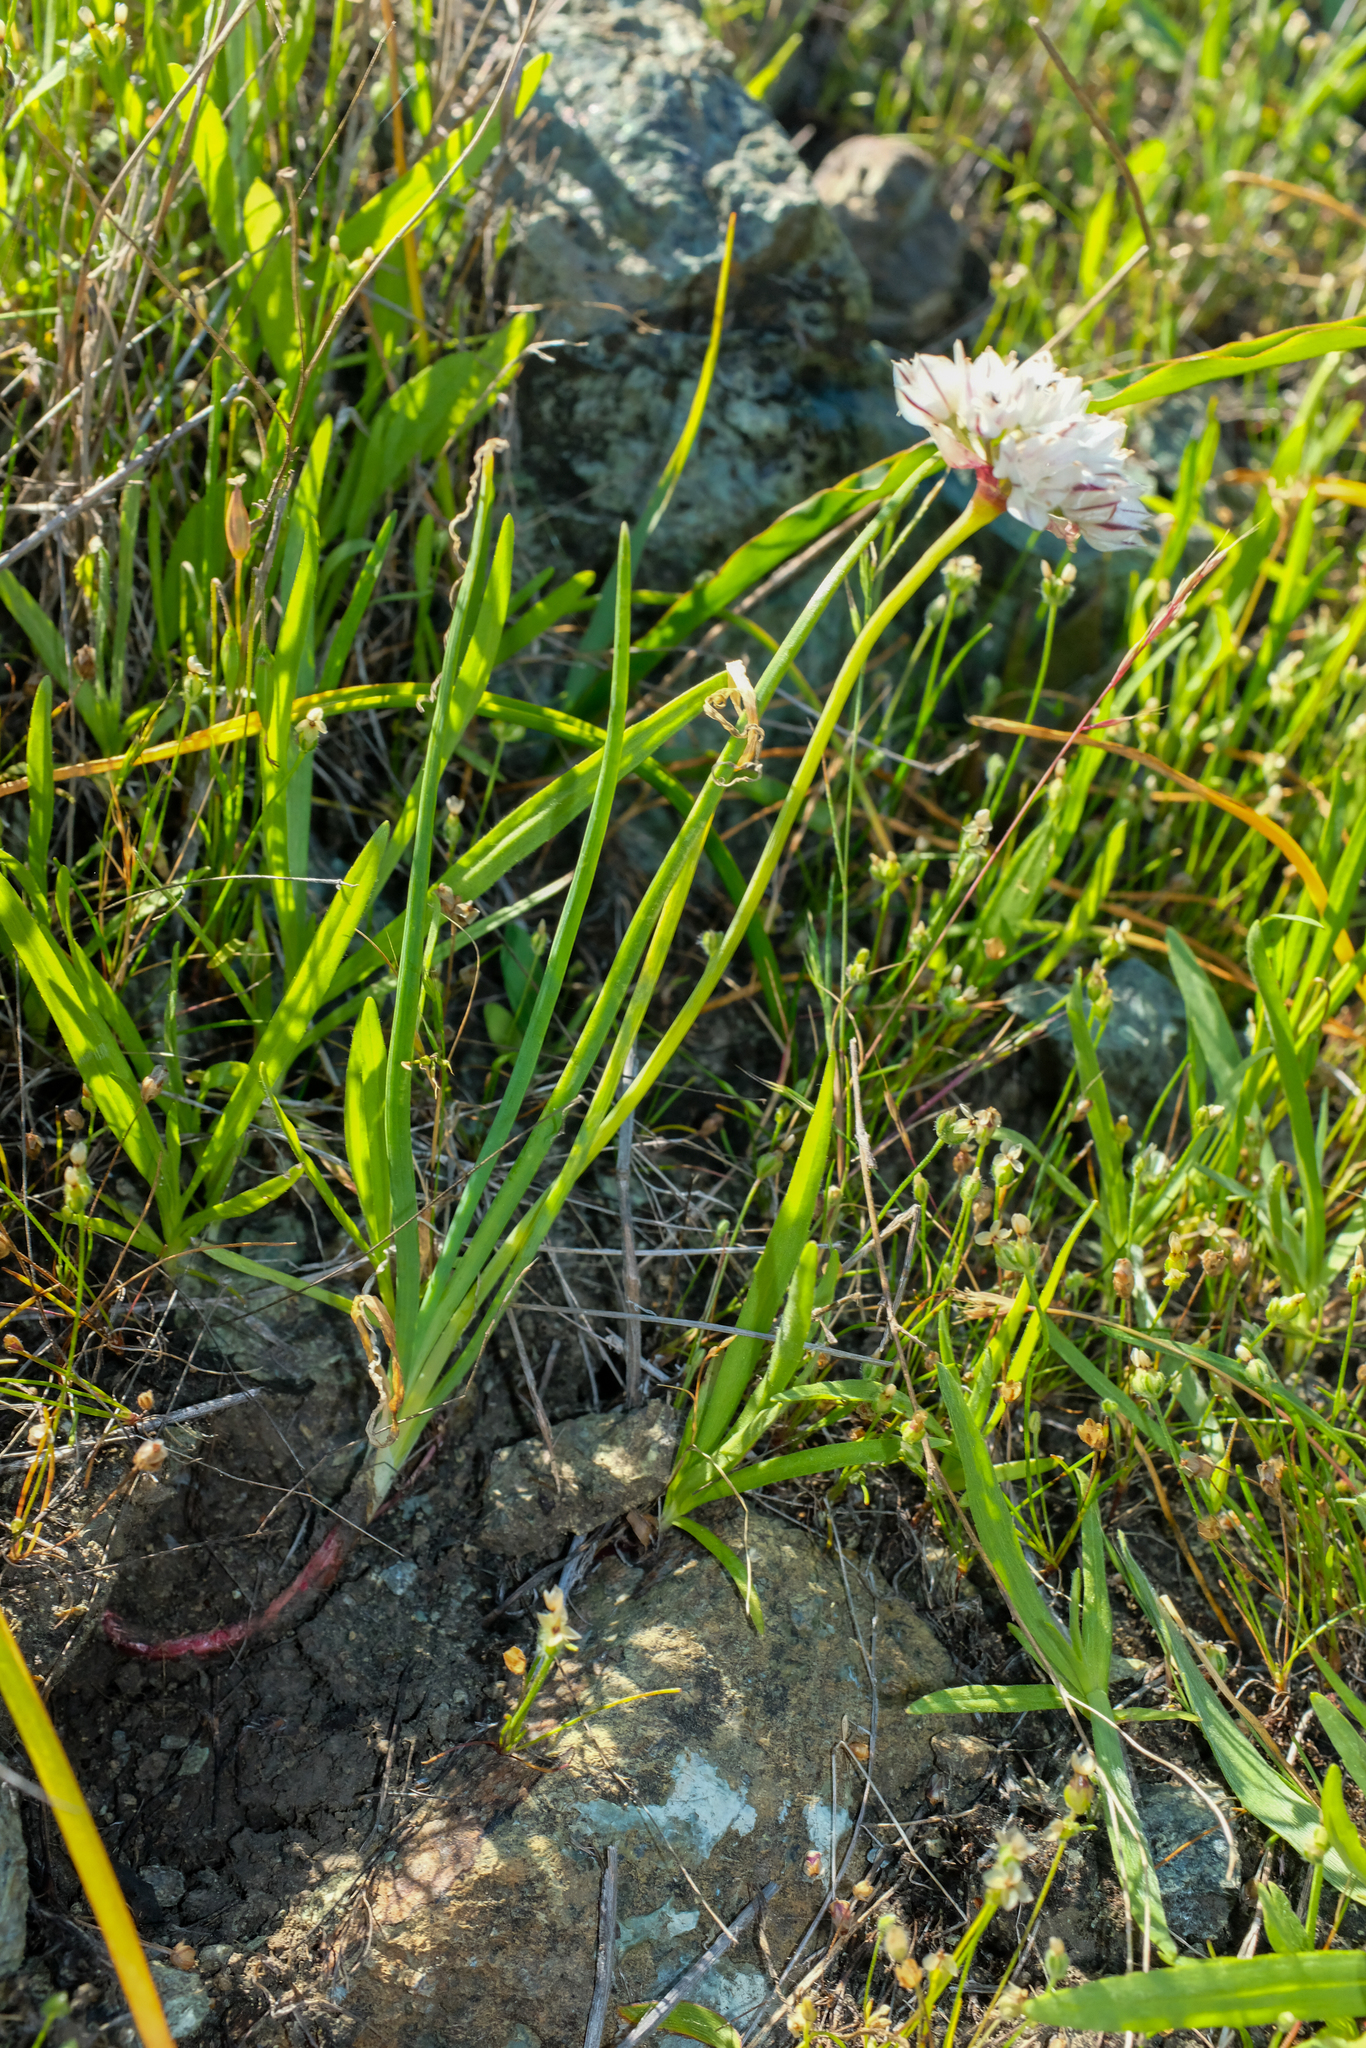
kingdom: Plantae
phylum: Tracheophyta
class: Liliopsida
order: Asparagales
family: Amaryllidaceae
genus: Allium
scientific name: Allium haematochiton
